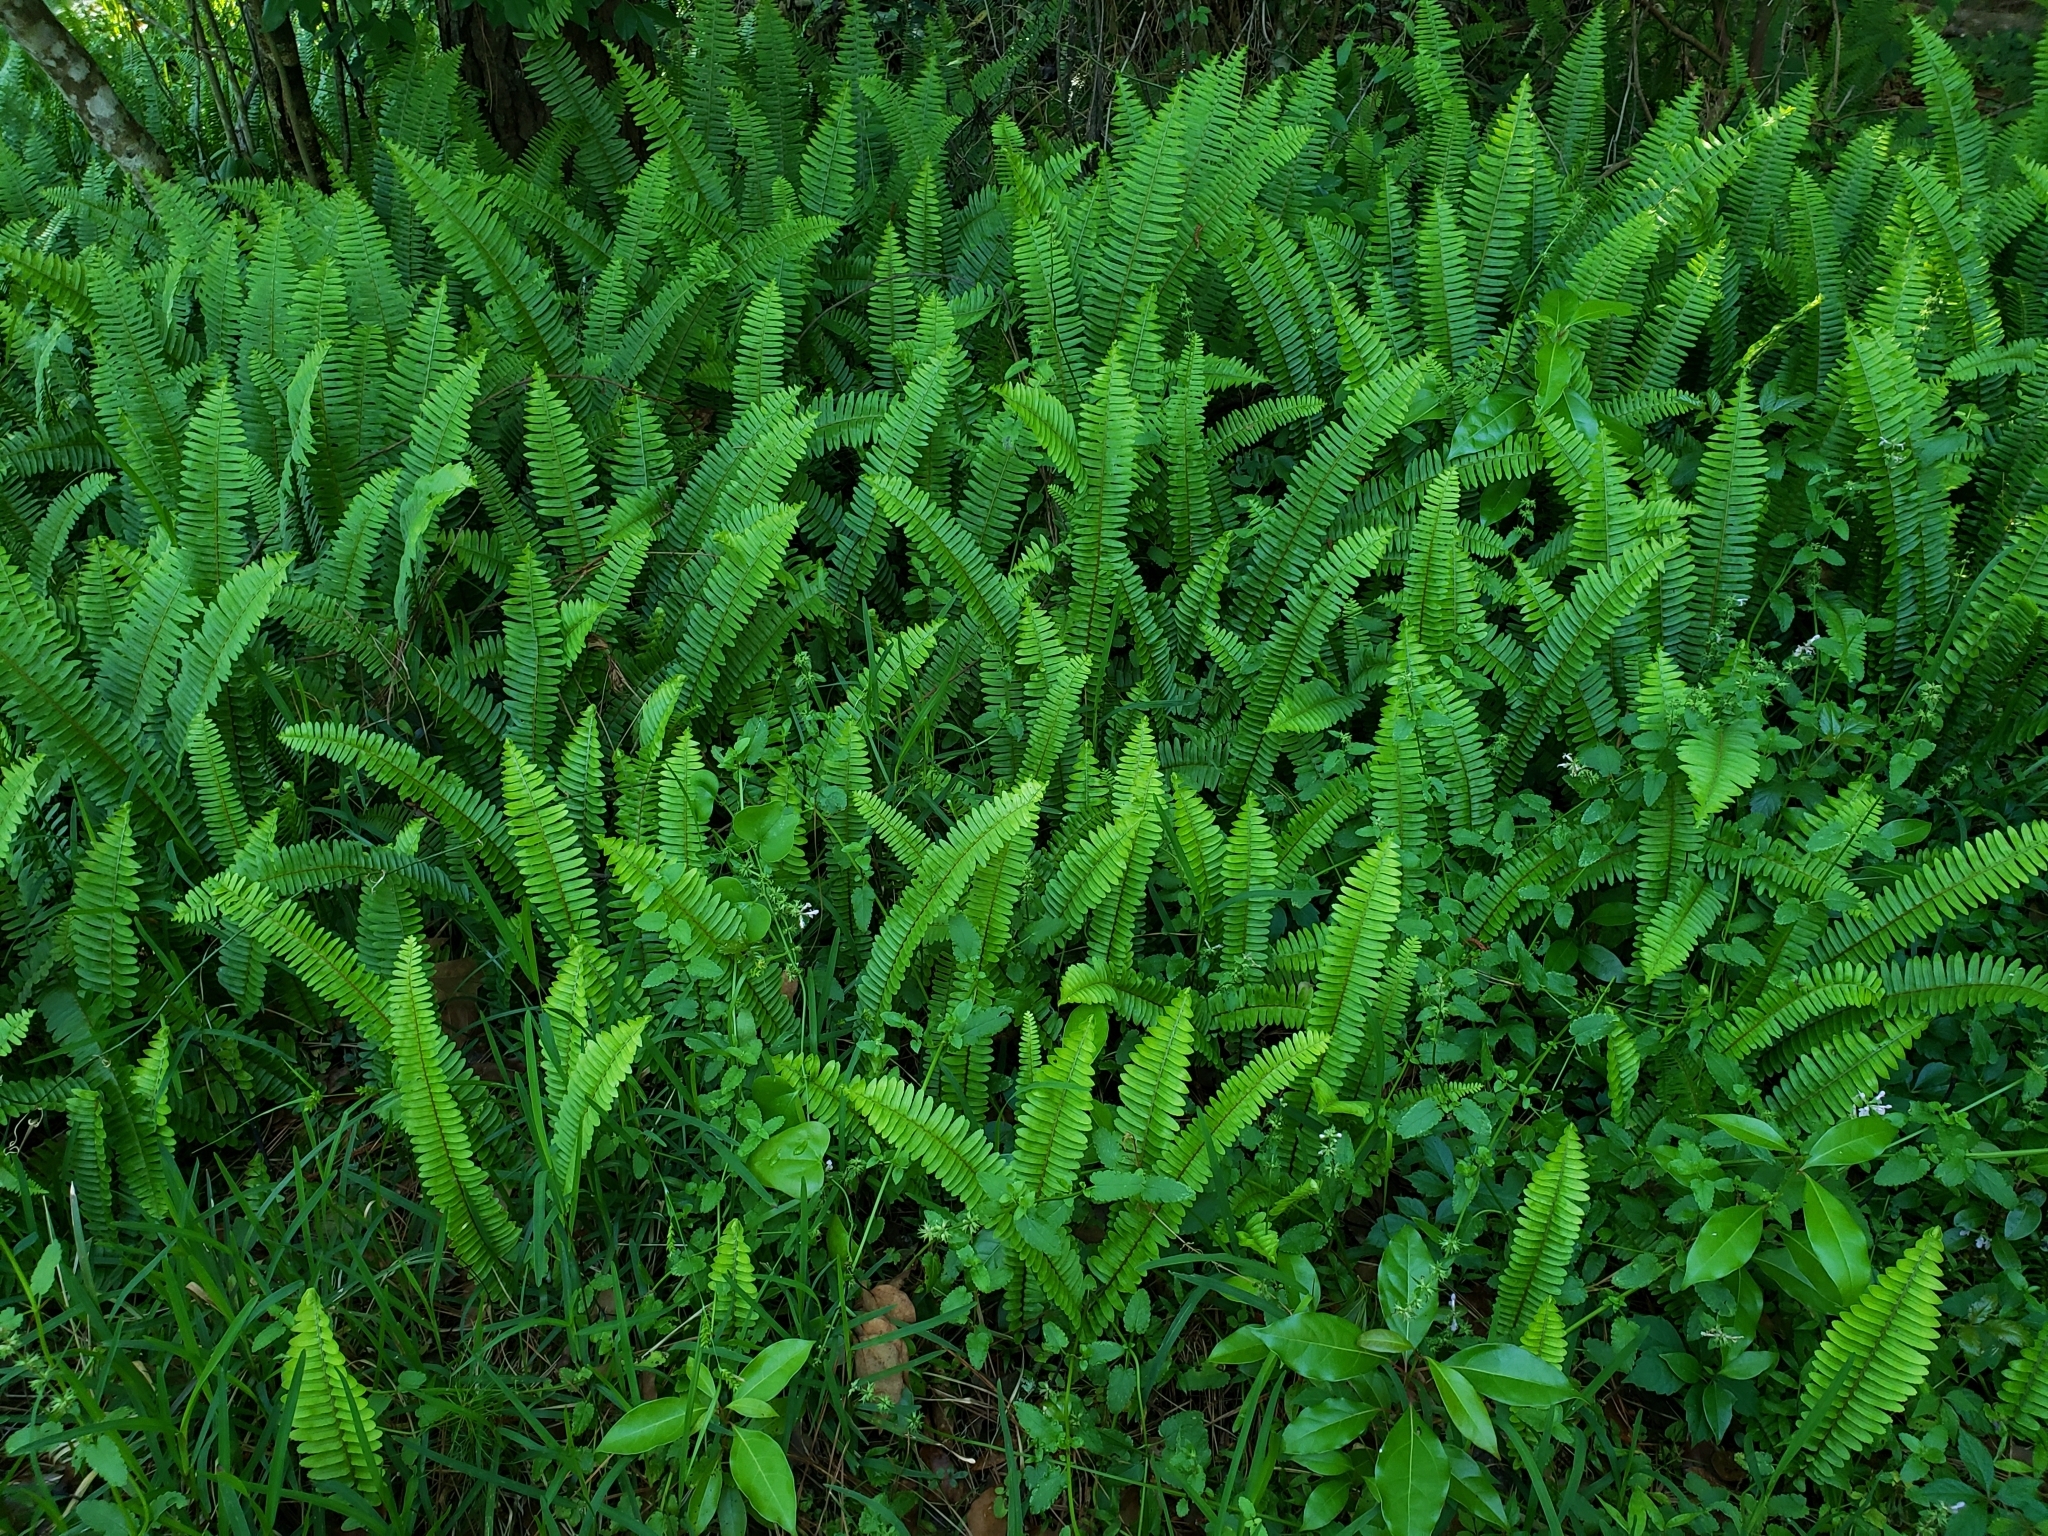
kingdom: Plantae
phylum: Tracheophyta
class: Polypodiopsida
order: Polypodiales
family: Nephrolepidaceae
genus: Nephrolepis
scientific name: Nephrolepis cordifolia
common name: Narrow swordfern
